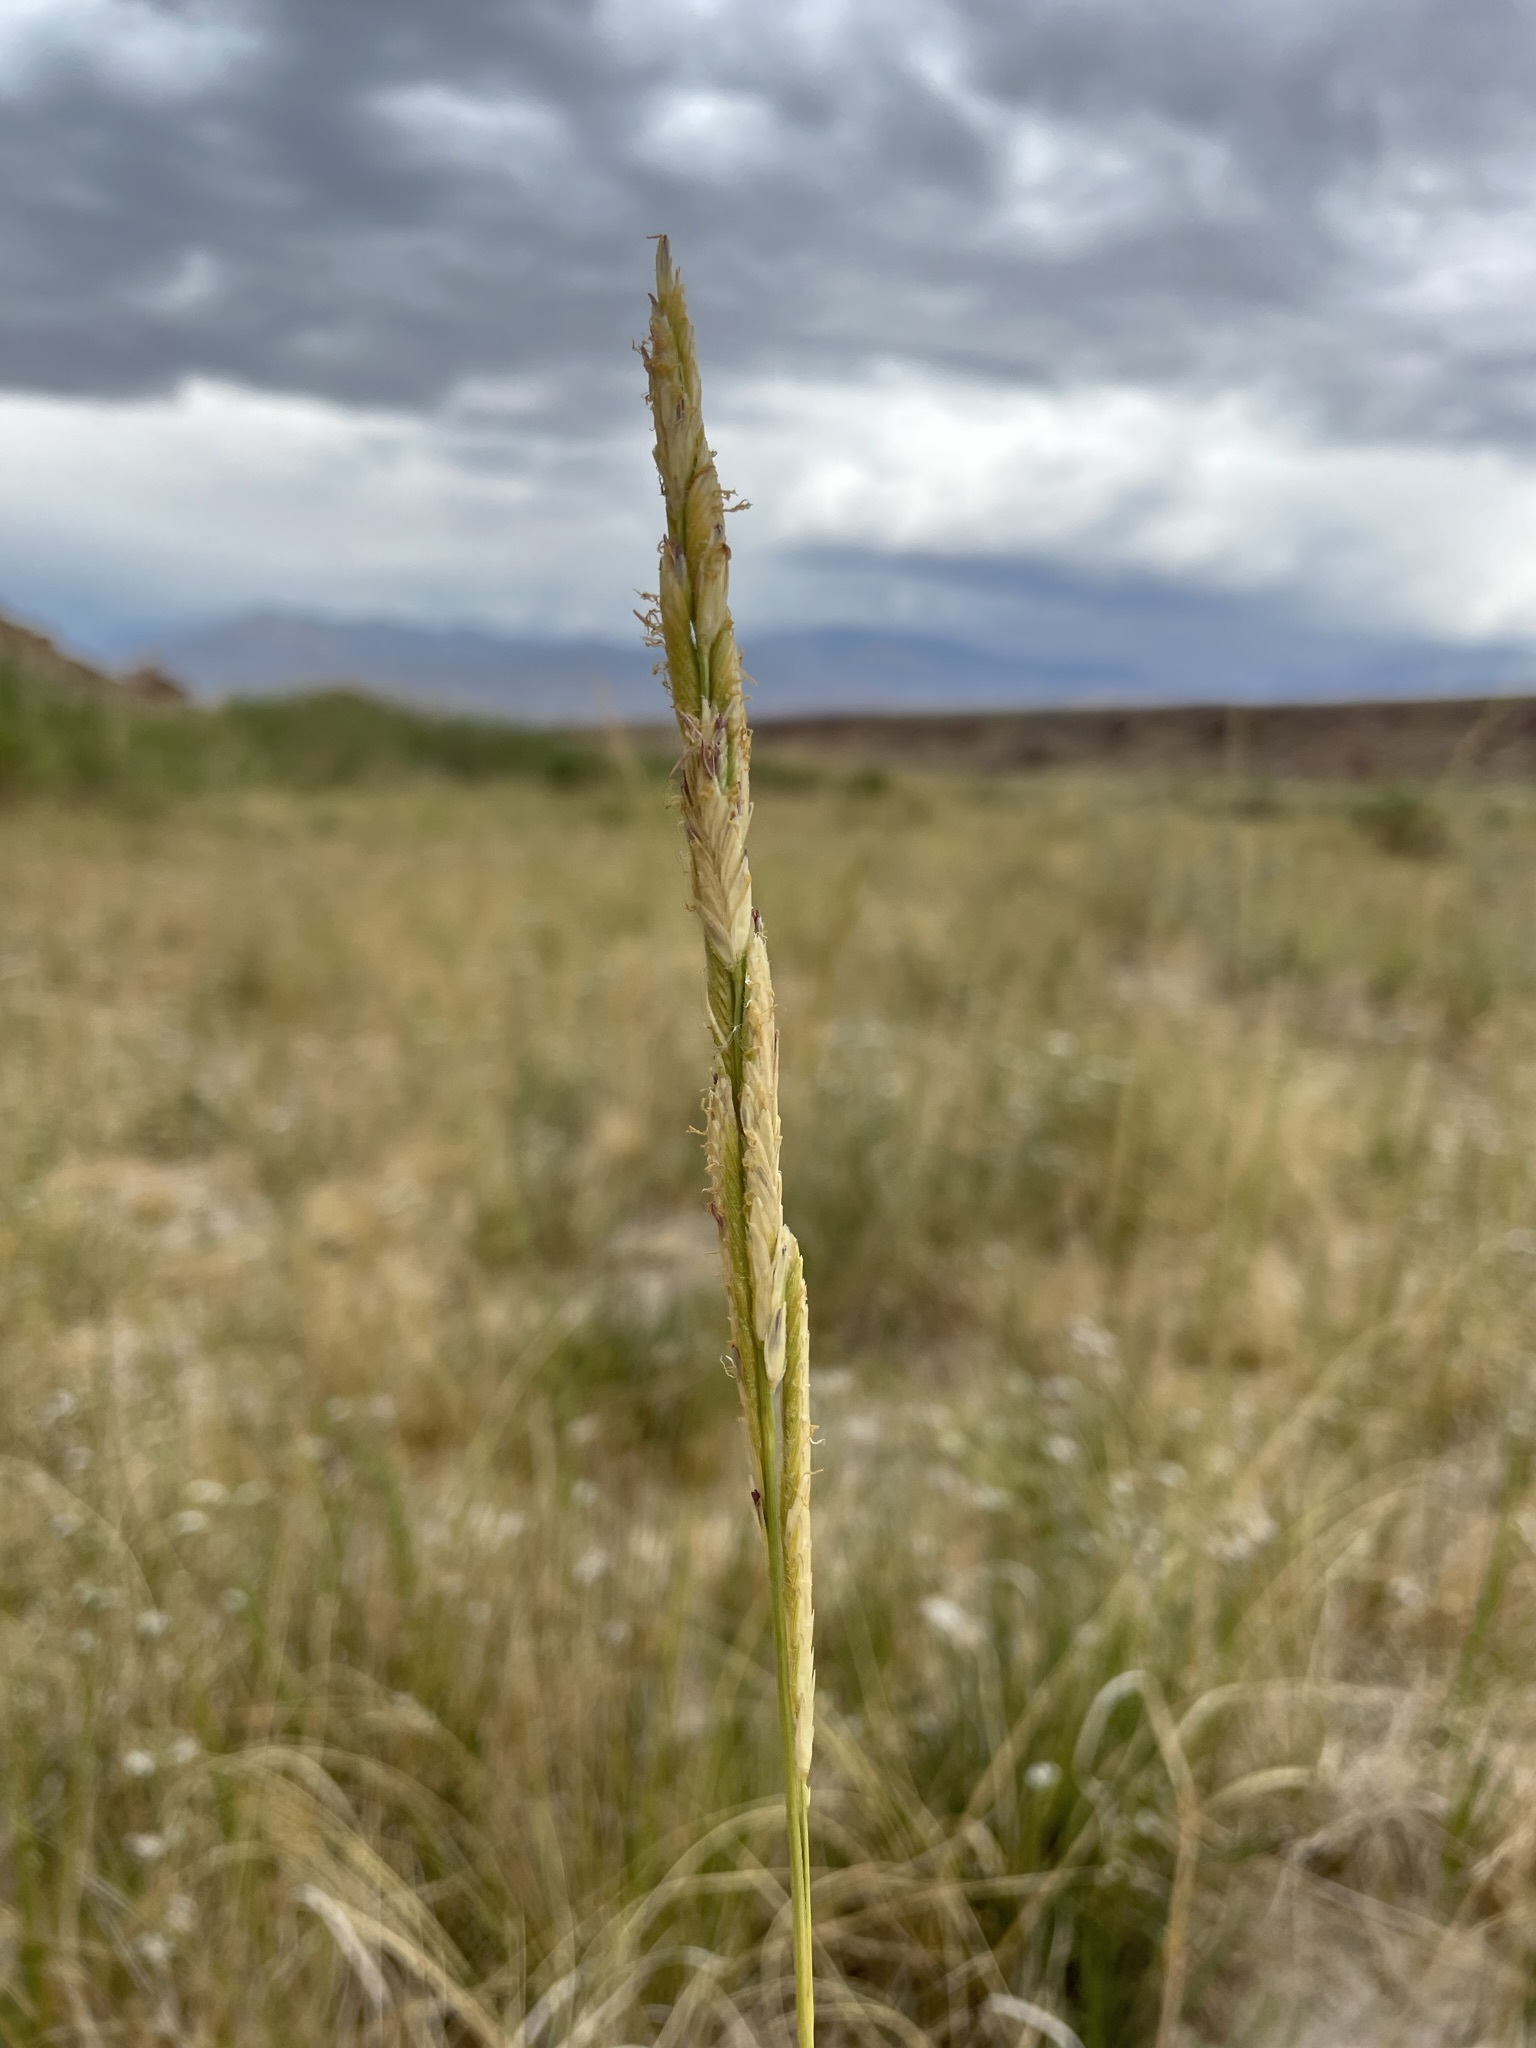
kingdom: Plantae
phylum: Tracheophyta
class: Liliopsida
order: Poales
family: Poaceae
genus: Sporobolus
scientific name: Sporobolus hookerianus
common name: Alkali cordgrass
